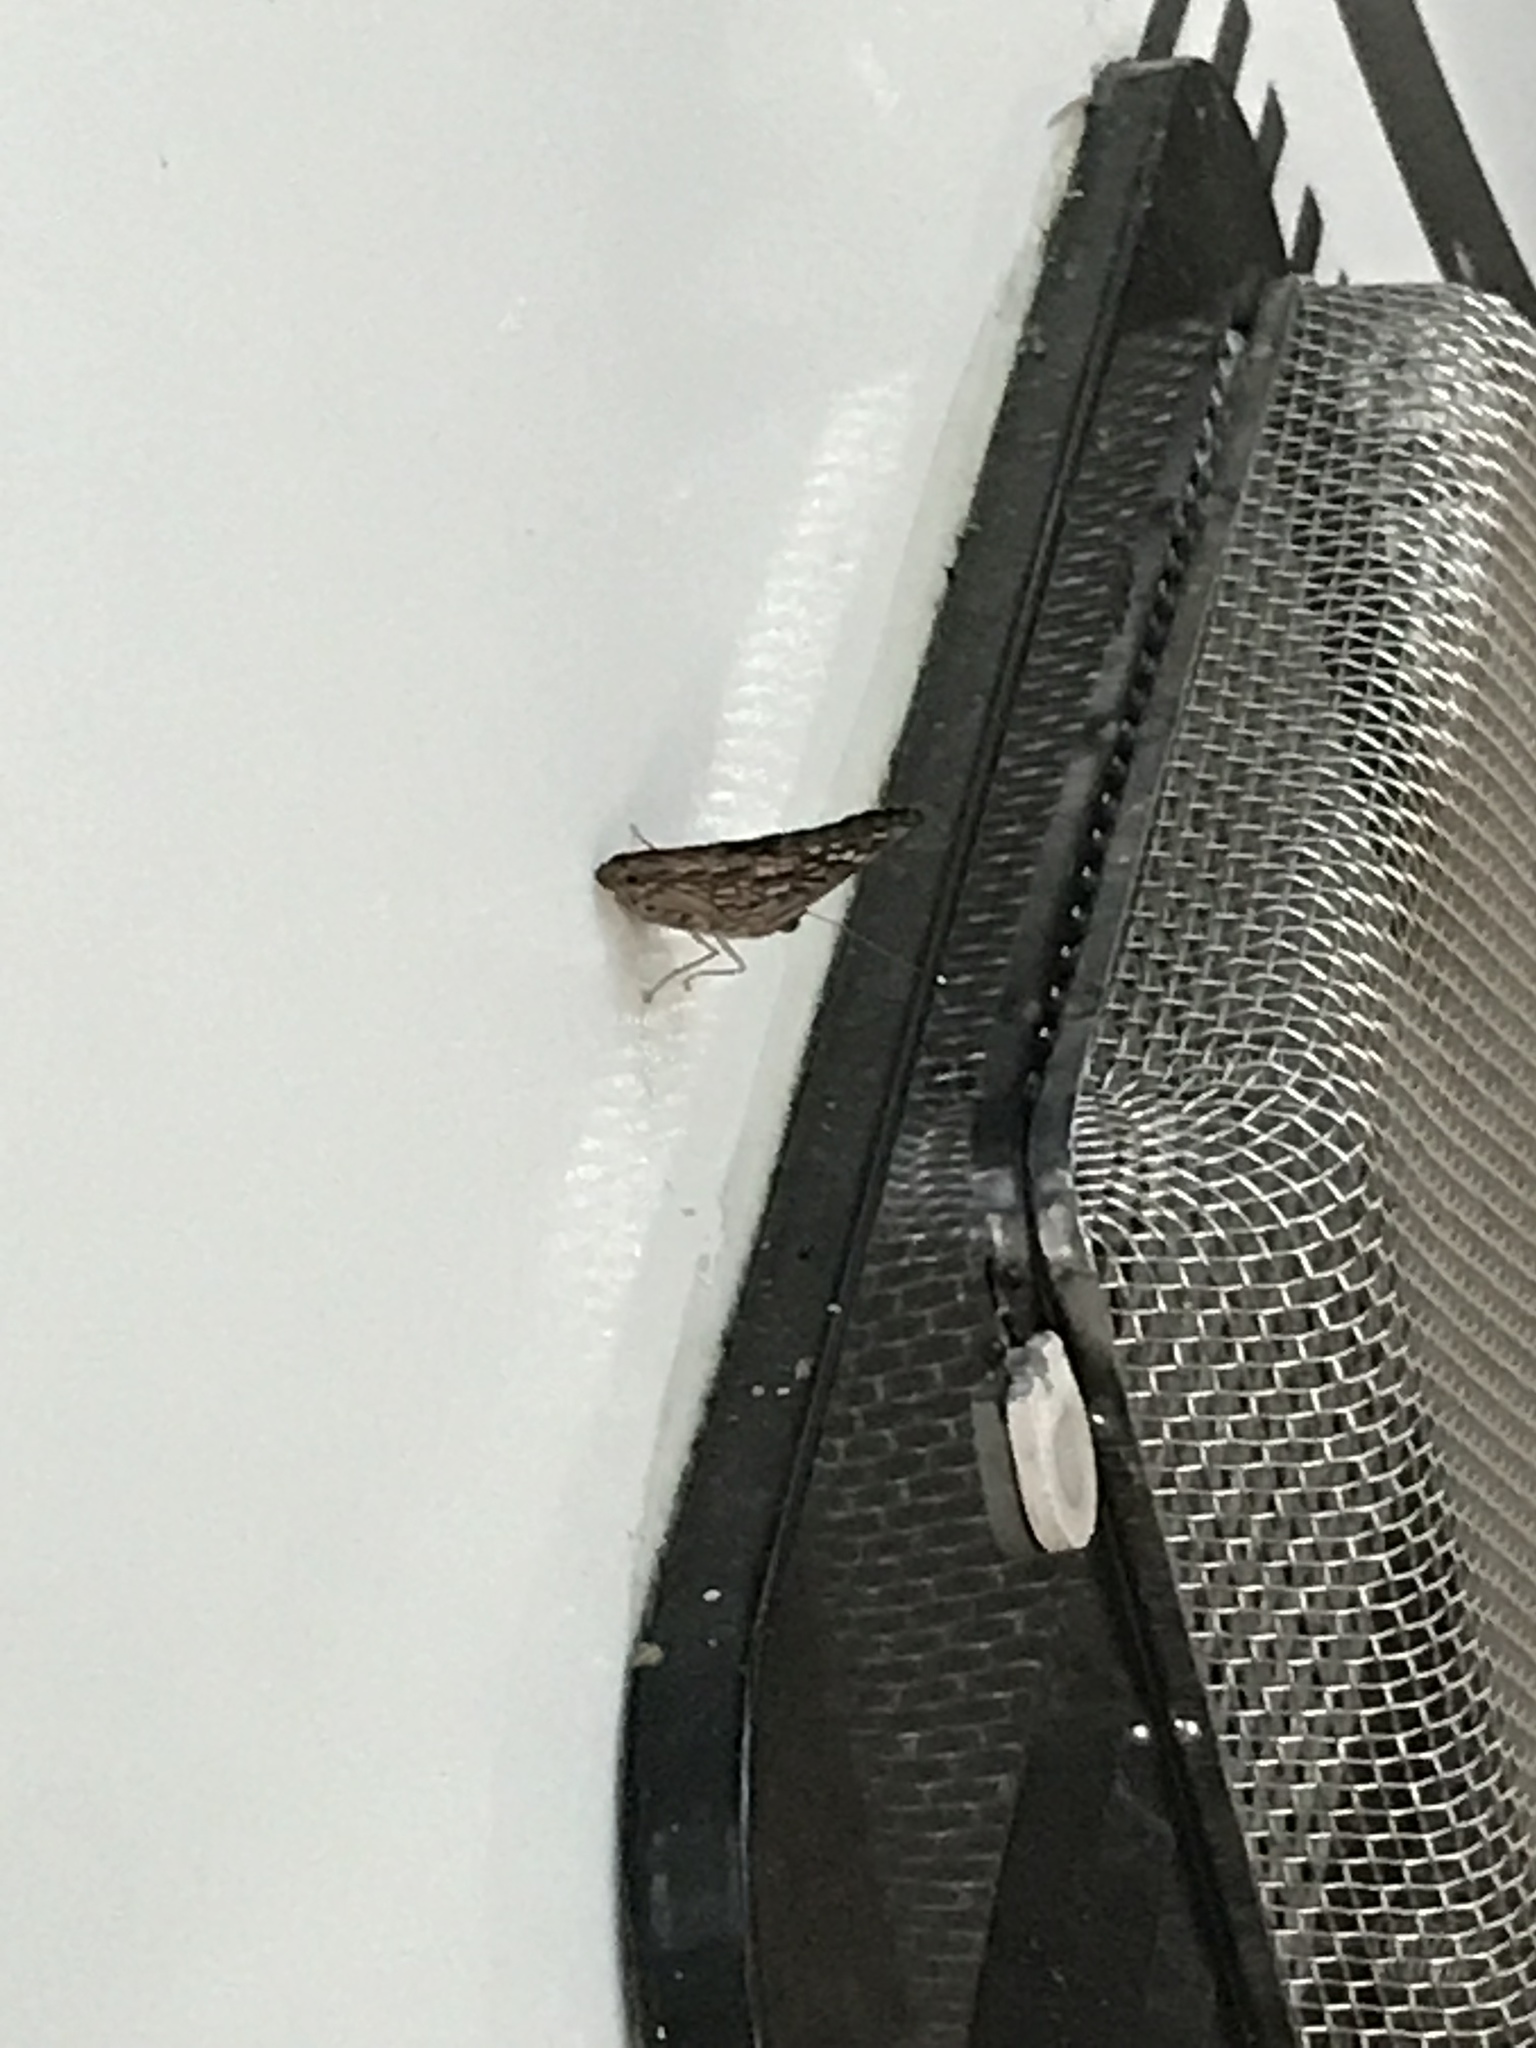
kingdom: Animalia
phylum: Arthropoda
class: Insecta
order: Lepidoptera
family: Nymphalidae
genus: Asterocampa
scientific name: Asterocampa celtis
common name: Hackberry emperor
